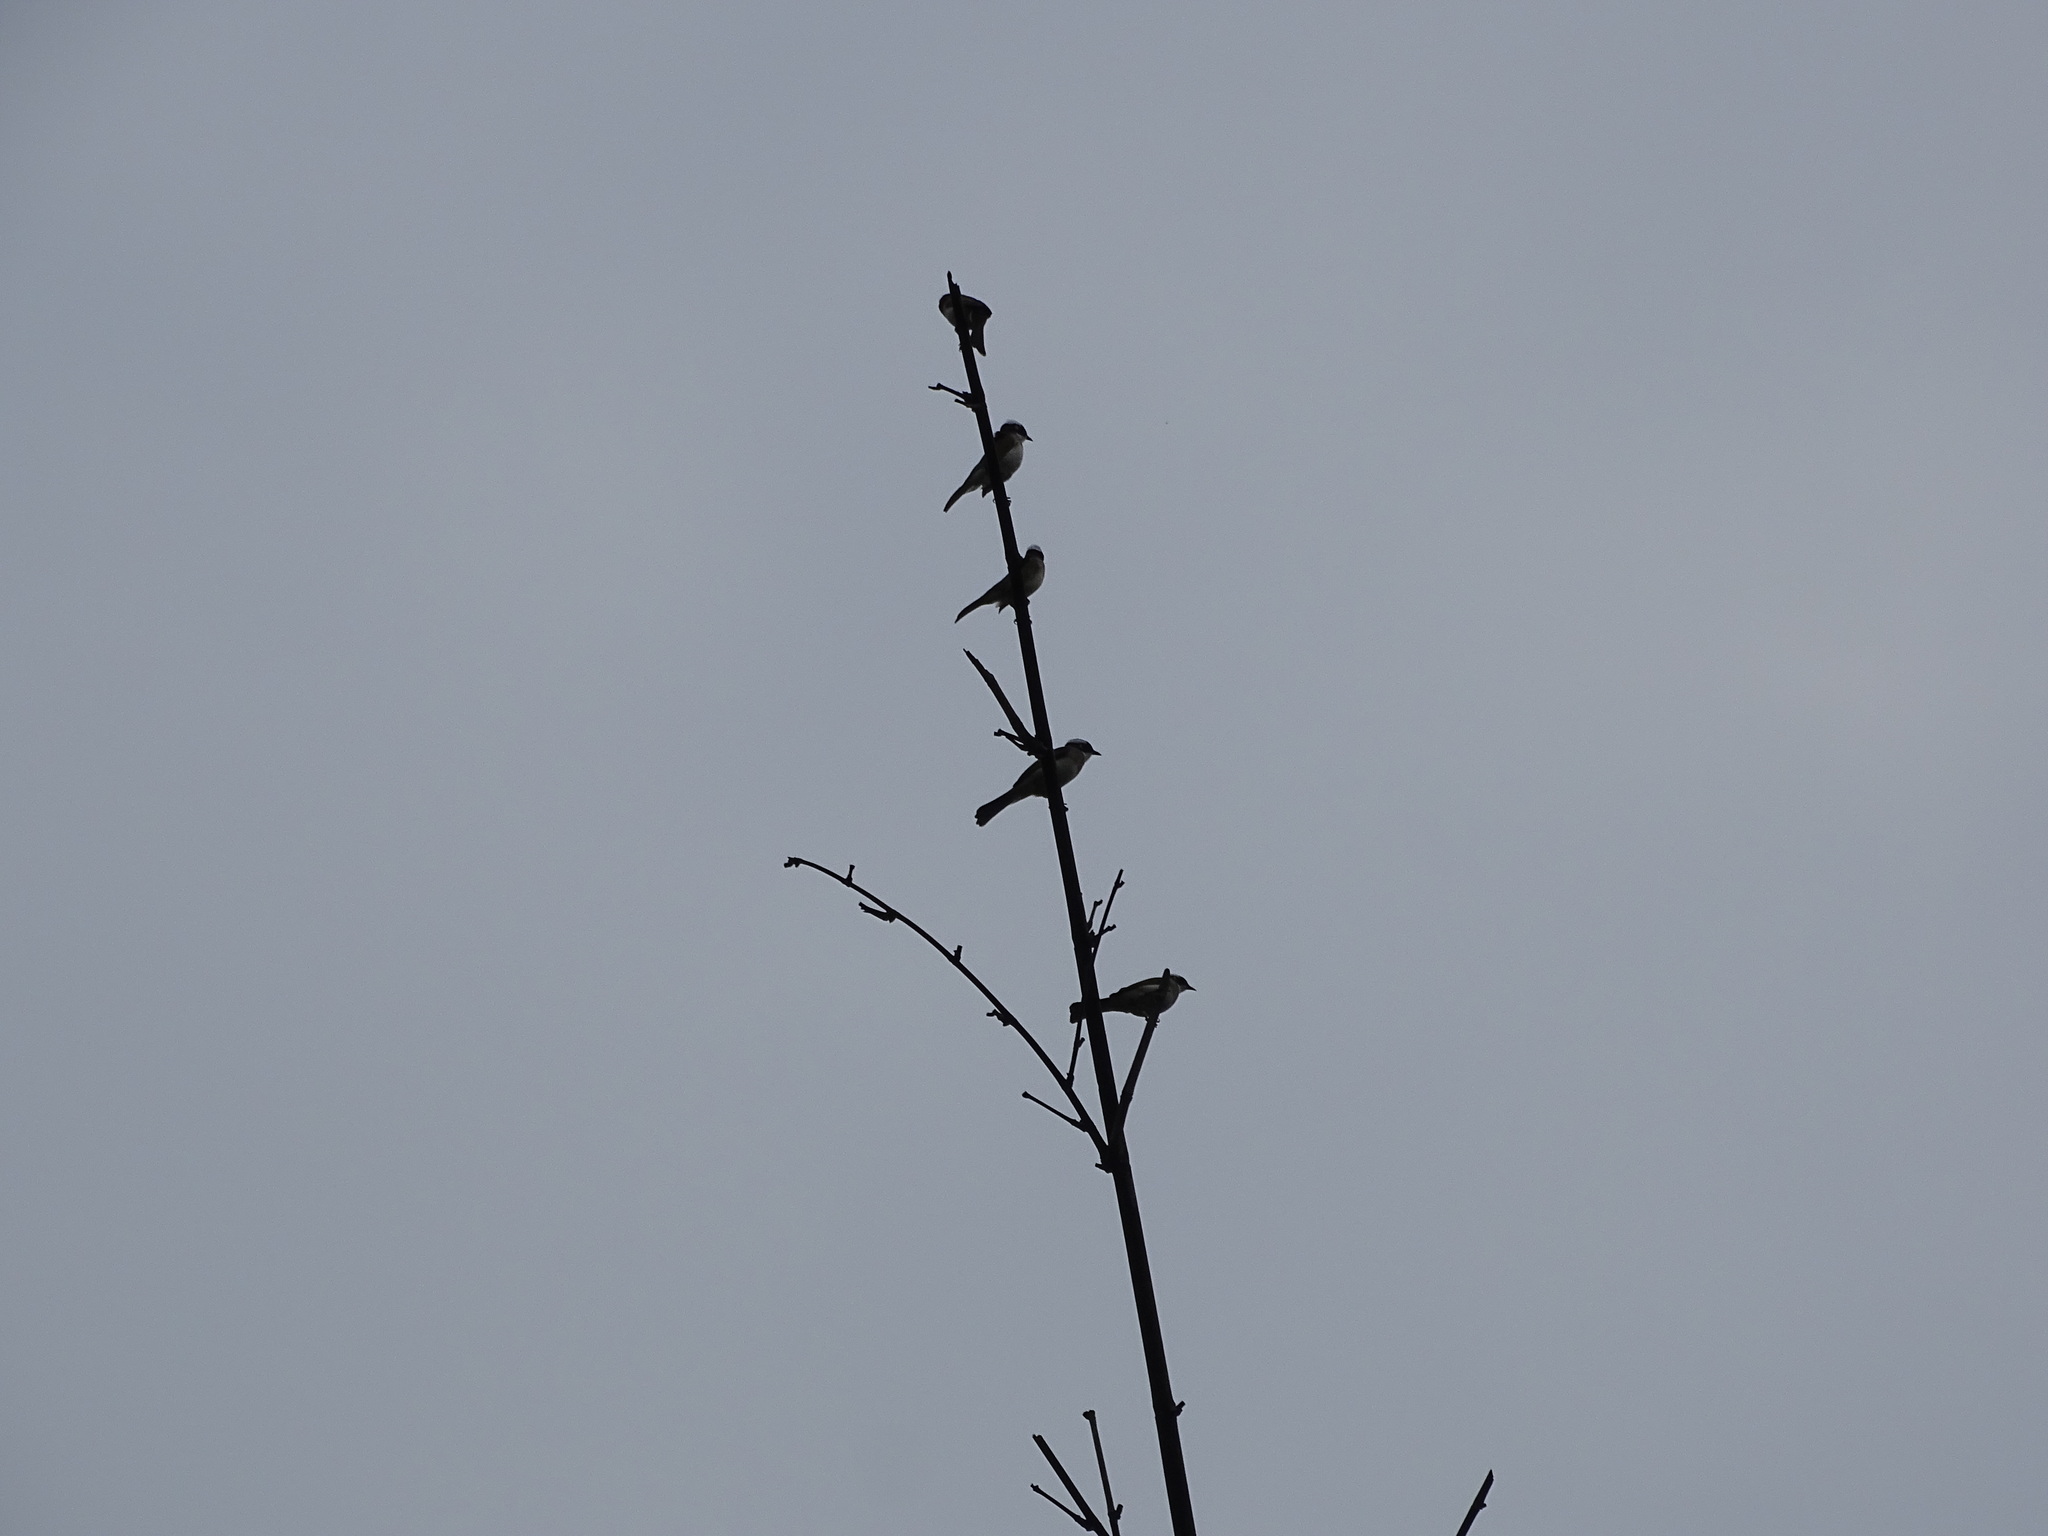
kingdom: Animalia
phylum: Chordata
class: Aves
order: Passeriformes
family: Pycnonotidae
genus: Pycnonotus
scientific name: Pycnonotus sinensis
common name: Light-vented bulbul
